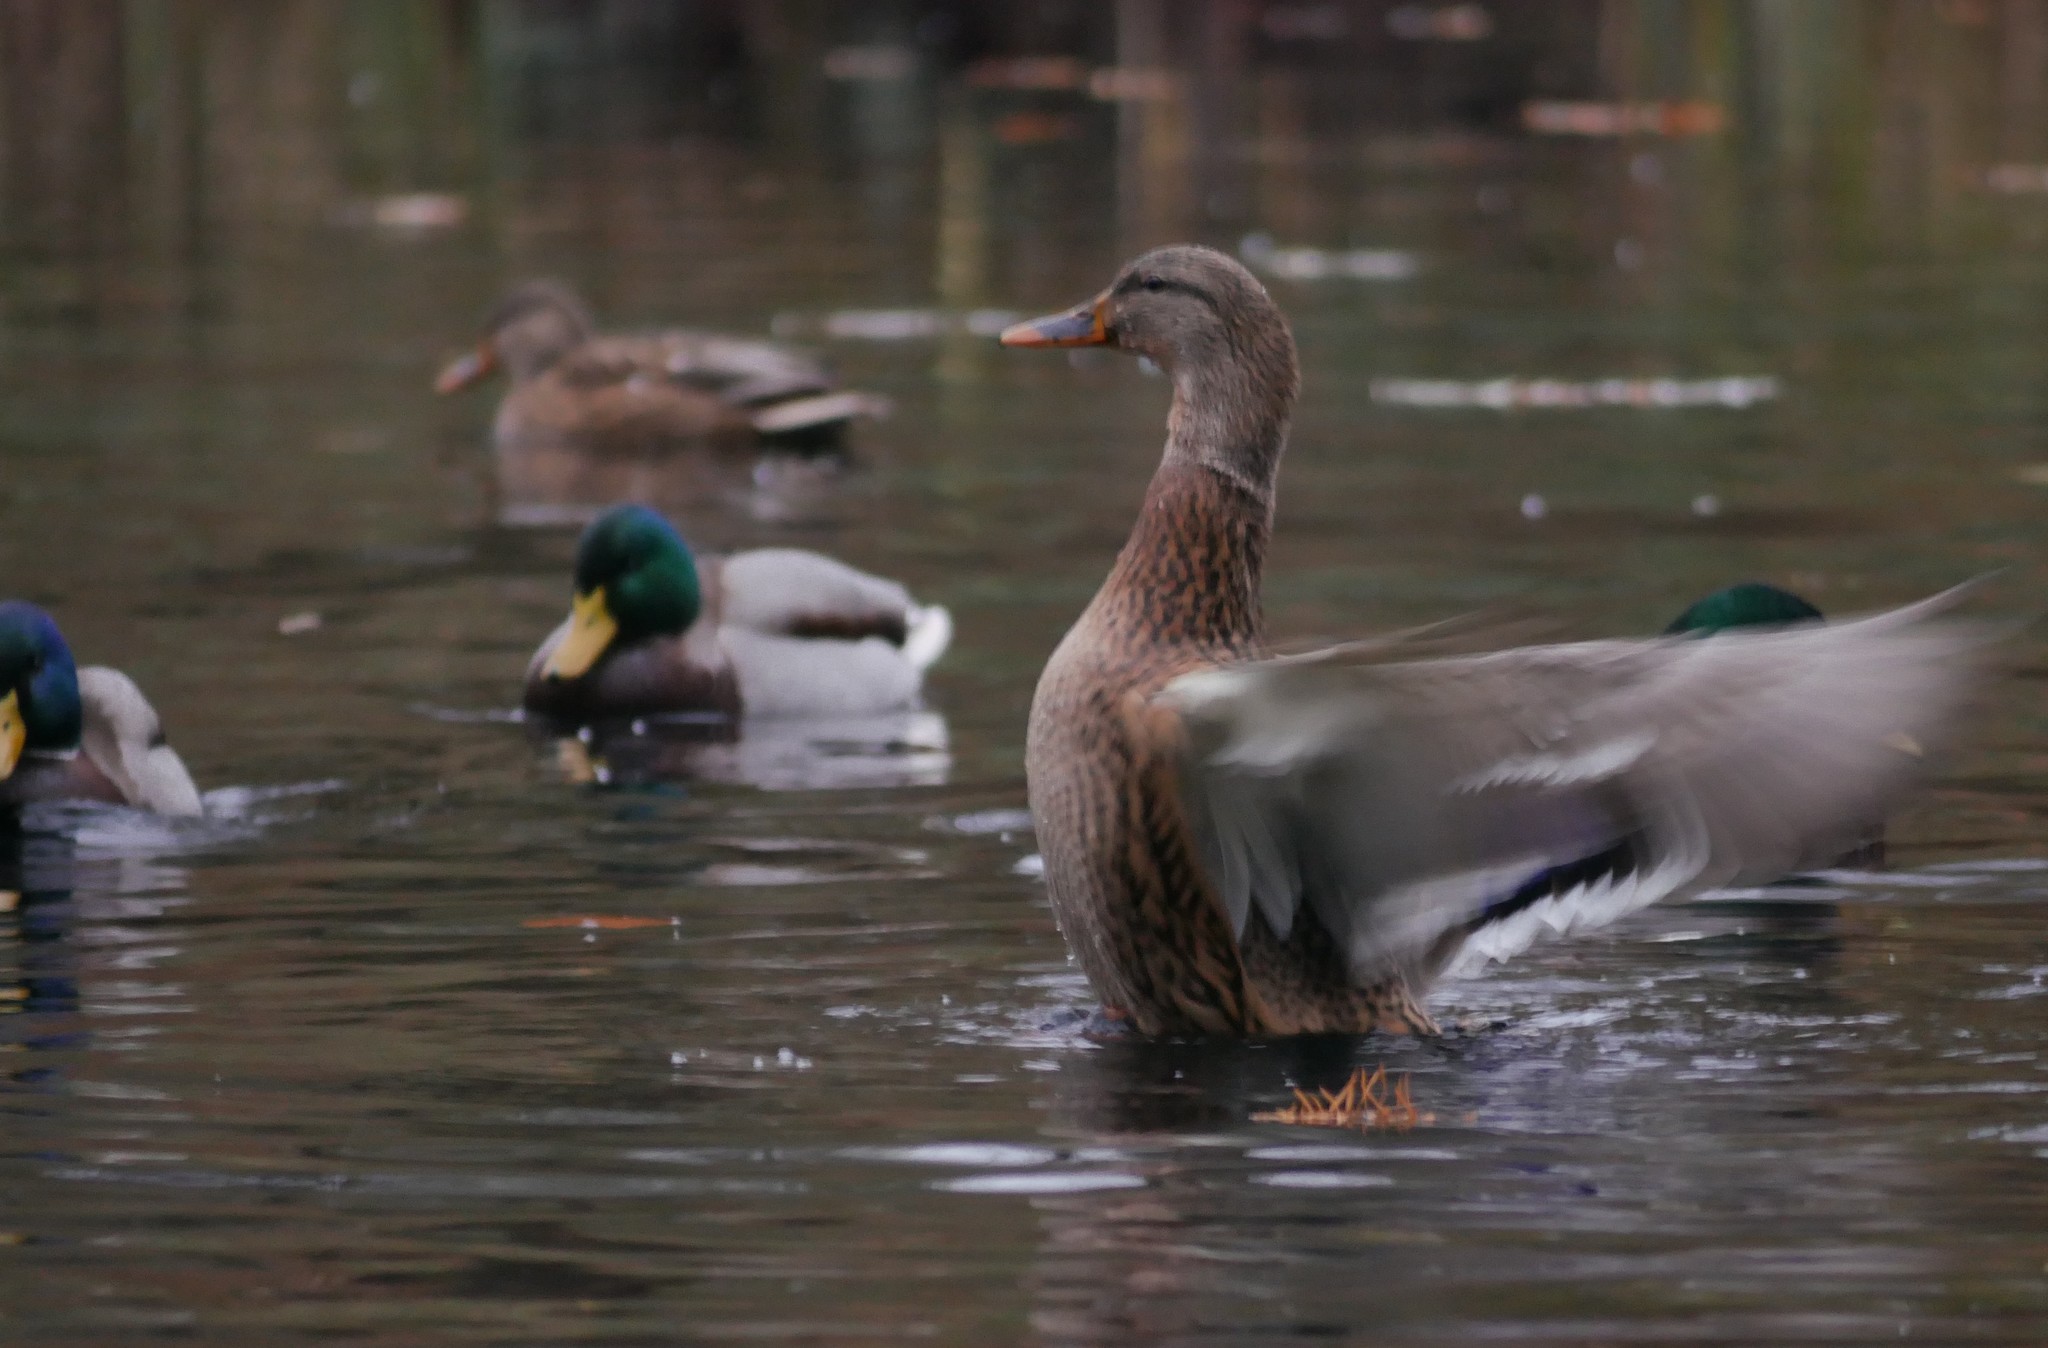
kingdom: Animalia
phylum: Chordata
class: Aves
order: Anseriformes
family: Anatidae
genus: Anas
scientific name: Anas platyrhynchos
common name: Mallard
